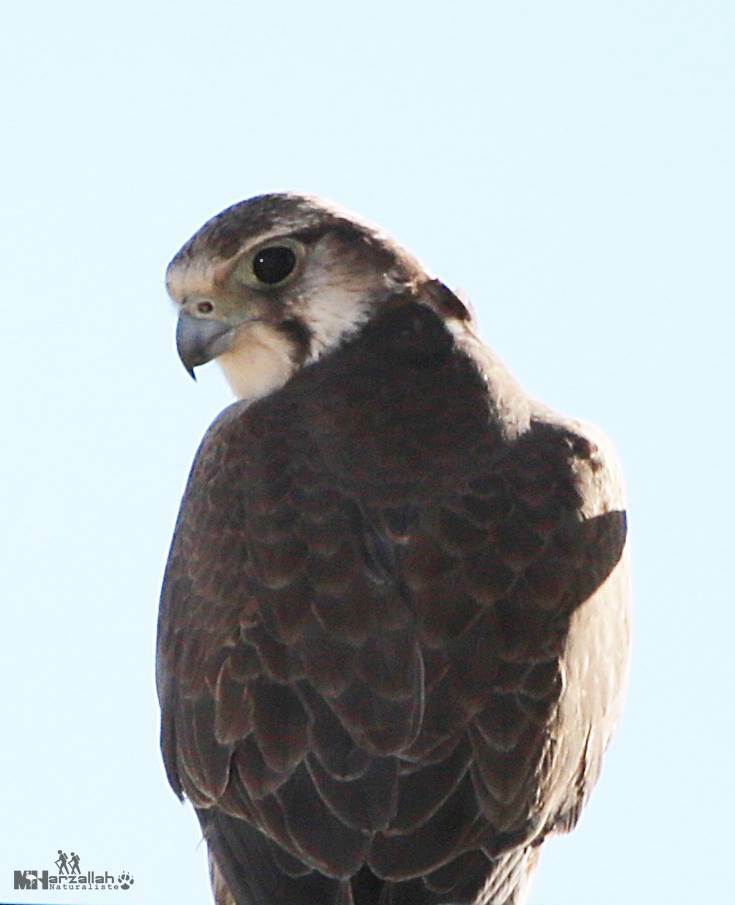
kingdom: Animalia
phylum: Chordata
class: Aves
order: Falconiformes
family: Falconidae
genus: Falco
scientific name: Falco biarmicus
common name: Lanner falcon
